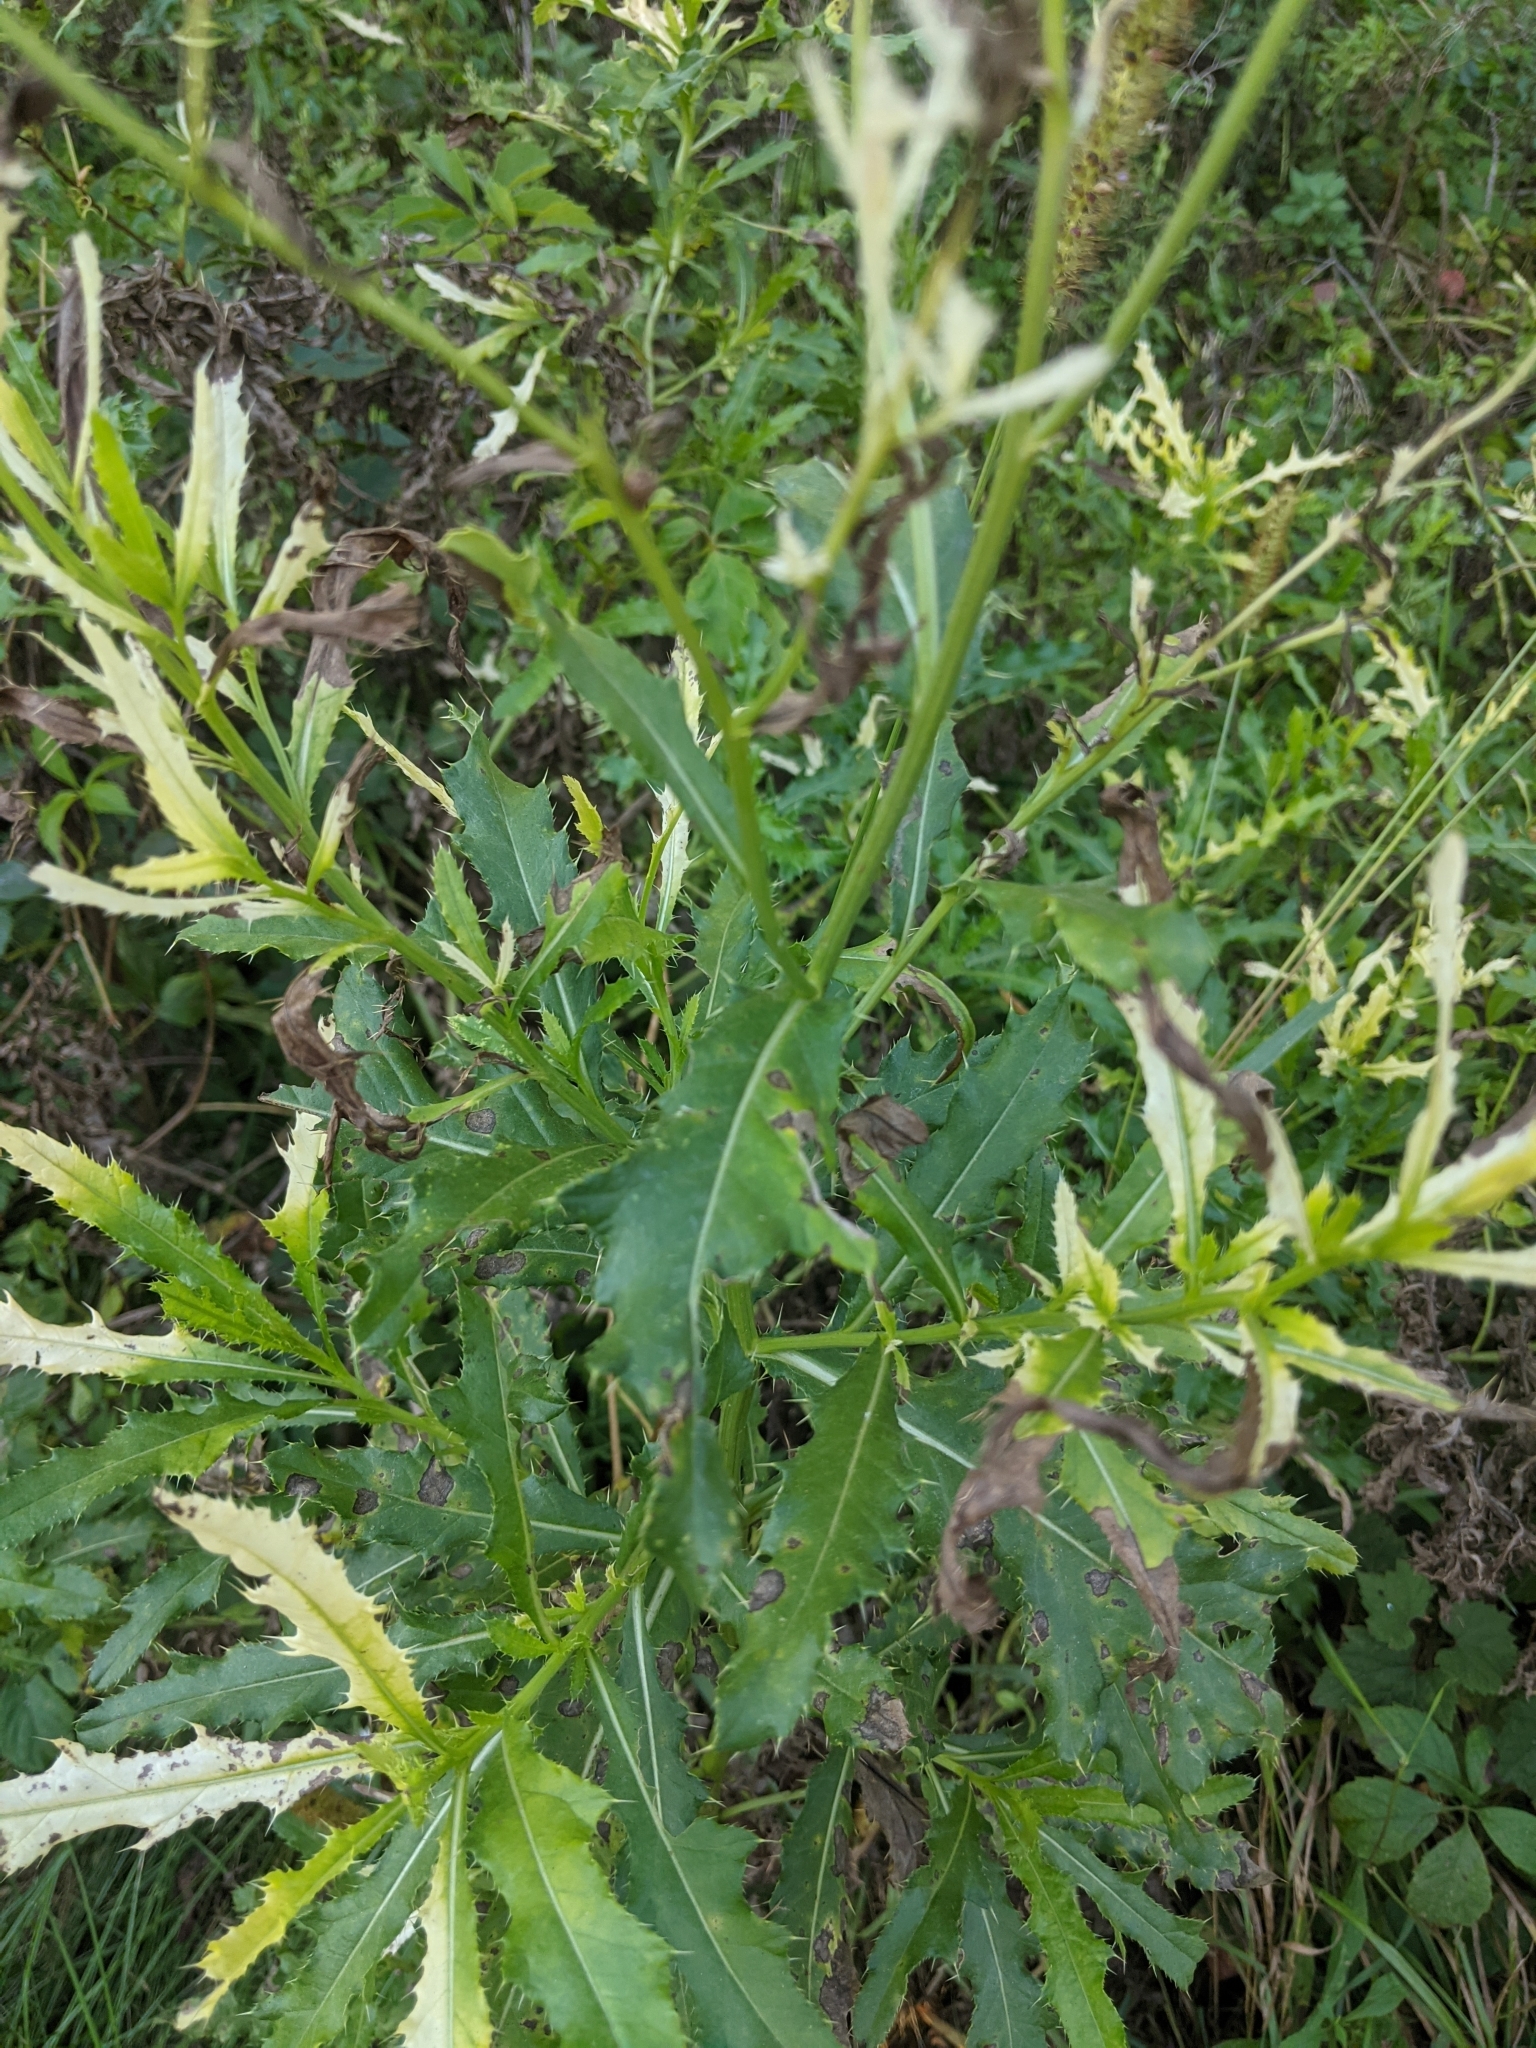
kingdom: Plantae
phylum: Tracheophyta
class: Magnoliopsida
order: Asterales
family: Asteraceae
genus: Cirsium
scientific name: Cirsium arvense
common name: Creeping thistle
